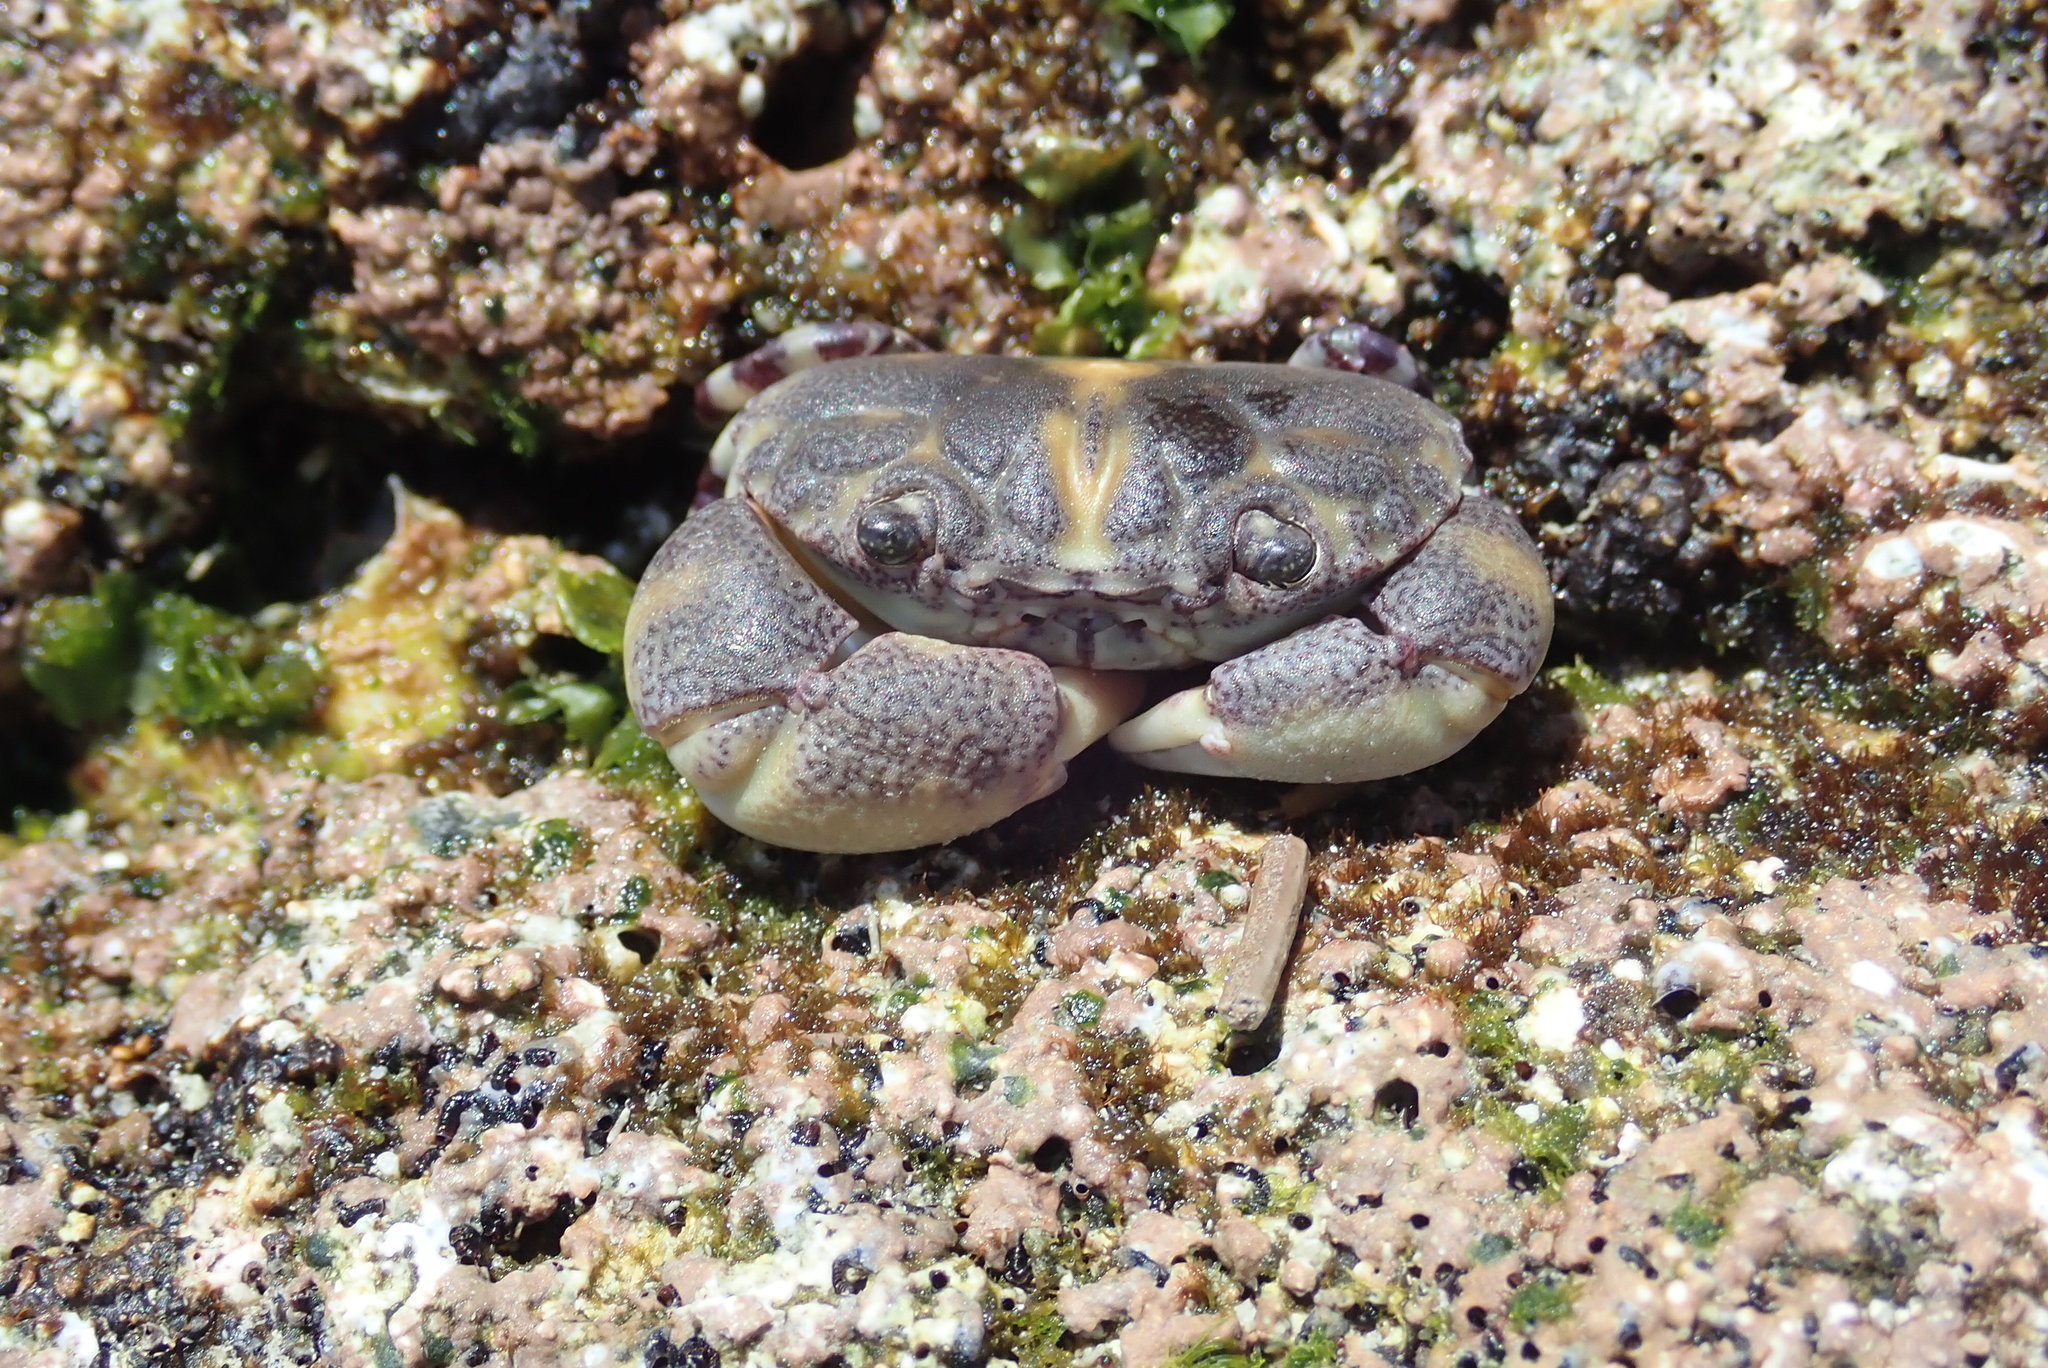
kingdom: Animalia
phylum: Arthropoda
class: Malacostraca
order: Decapoda
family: Oziidae
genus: Lydia
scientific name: Lydia annulipes
